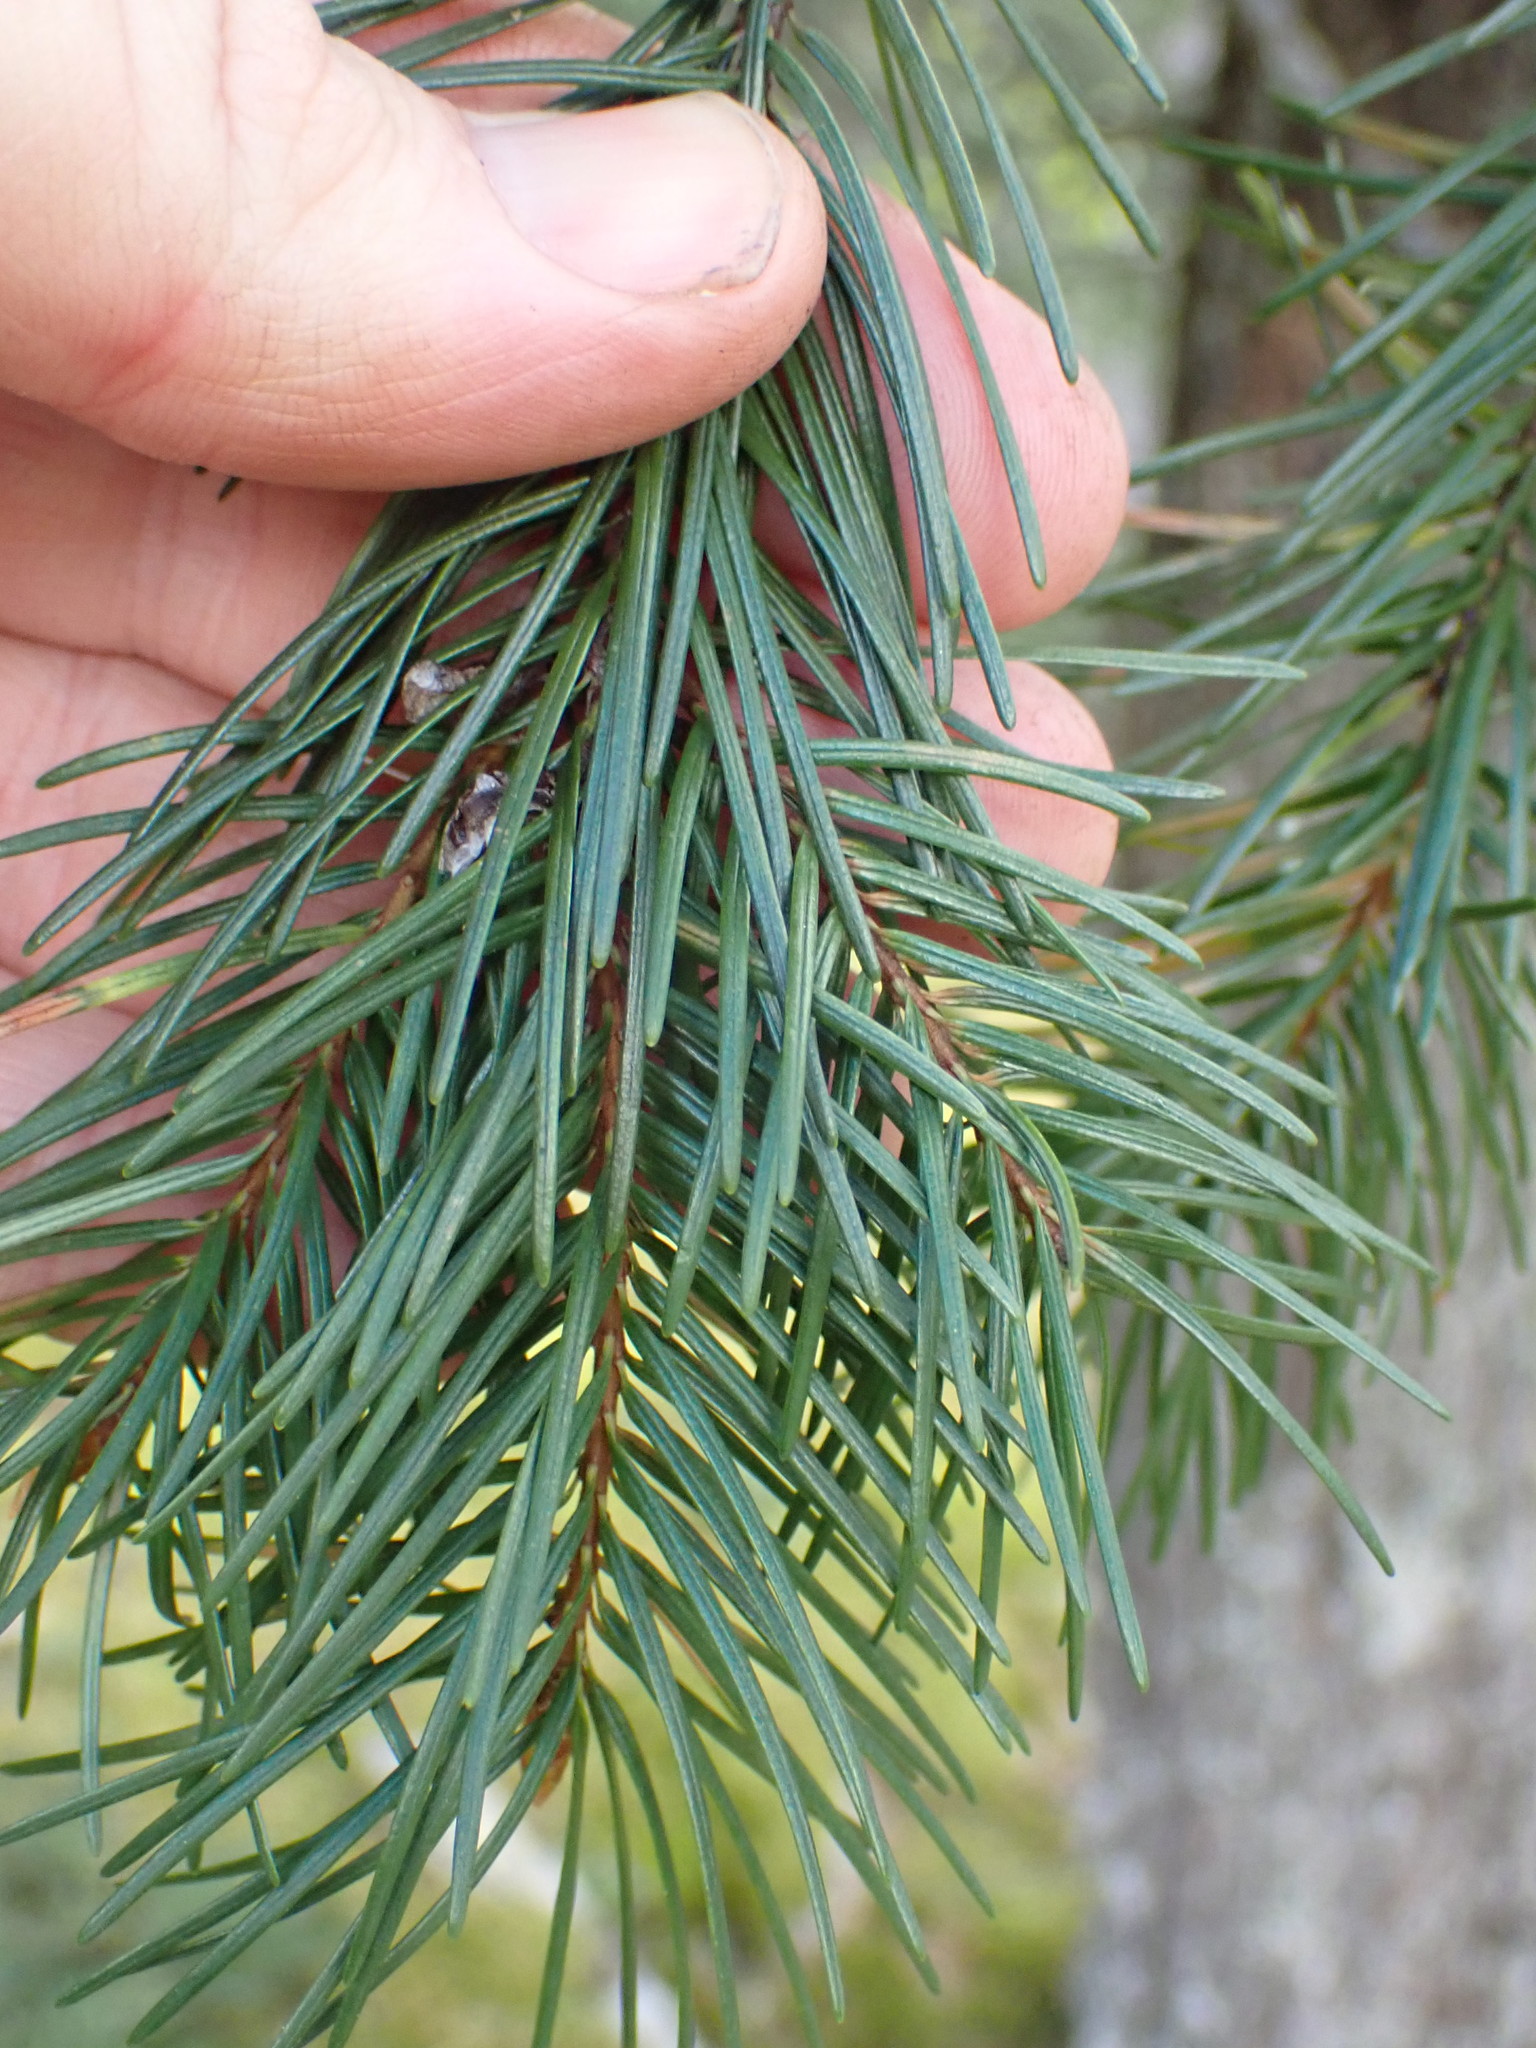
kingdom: Plantae
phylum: Tracheophyta
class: Pinopsida
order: Pinales
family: Pinaceae
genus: Pseudotsuga
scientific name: Pseudotsuga menziesii
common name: Douglas fir
